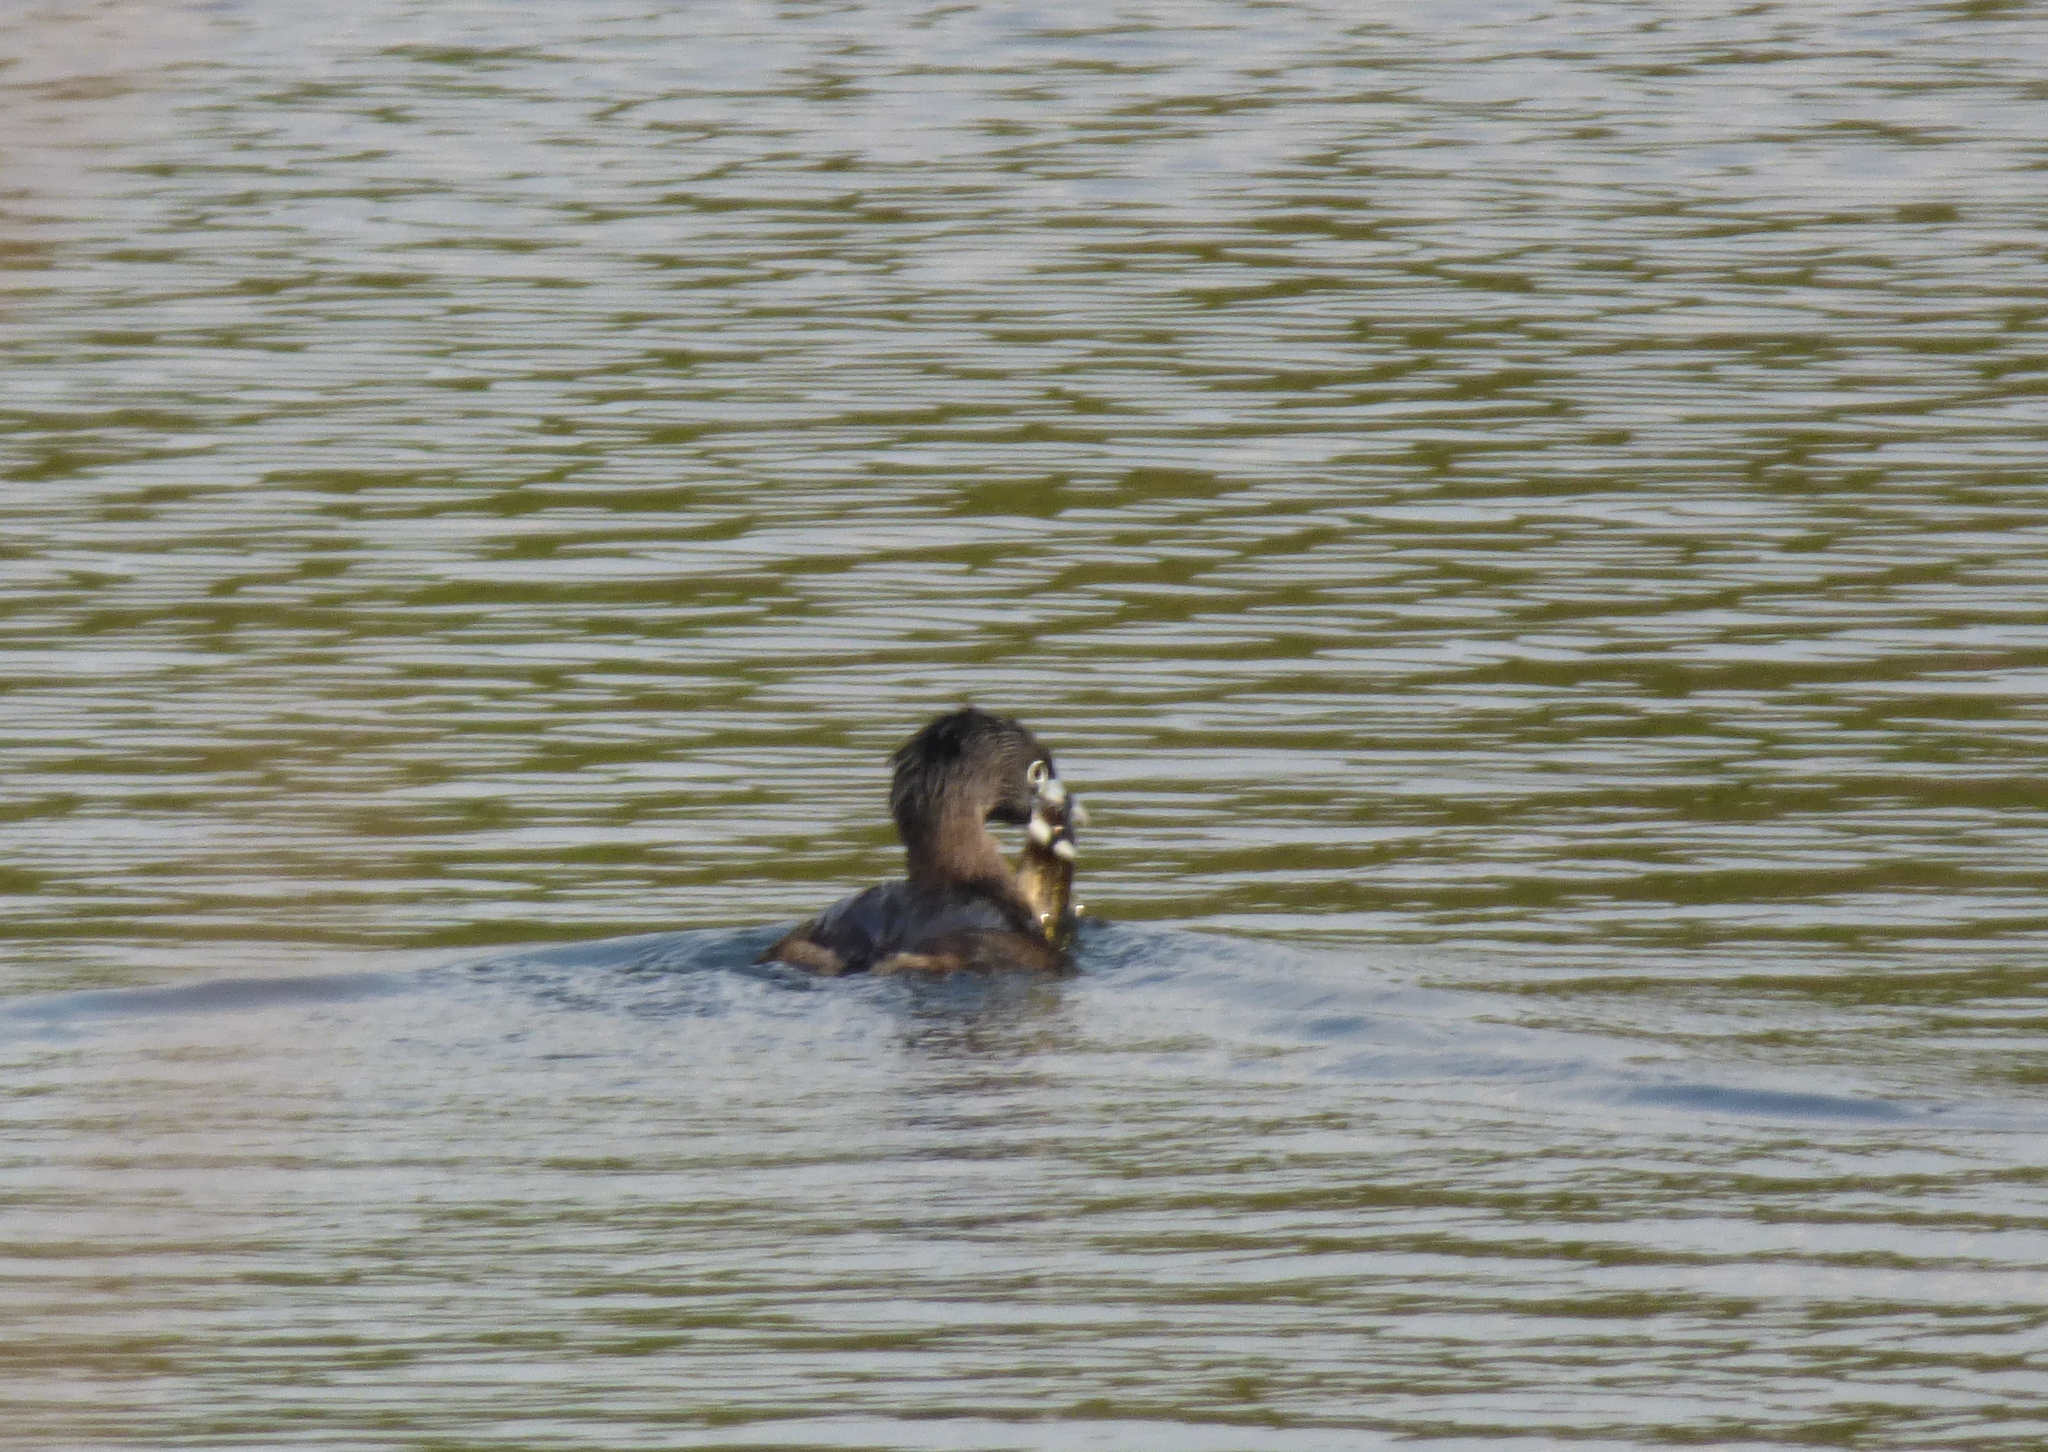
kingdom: Animalia
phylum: Chordata
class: Aves
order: Podicipediformes
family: Podicipedidae
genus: Podilymbus
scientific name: Podilymbus podiceps
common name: Pied-billed grebe
